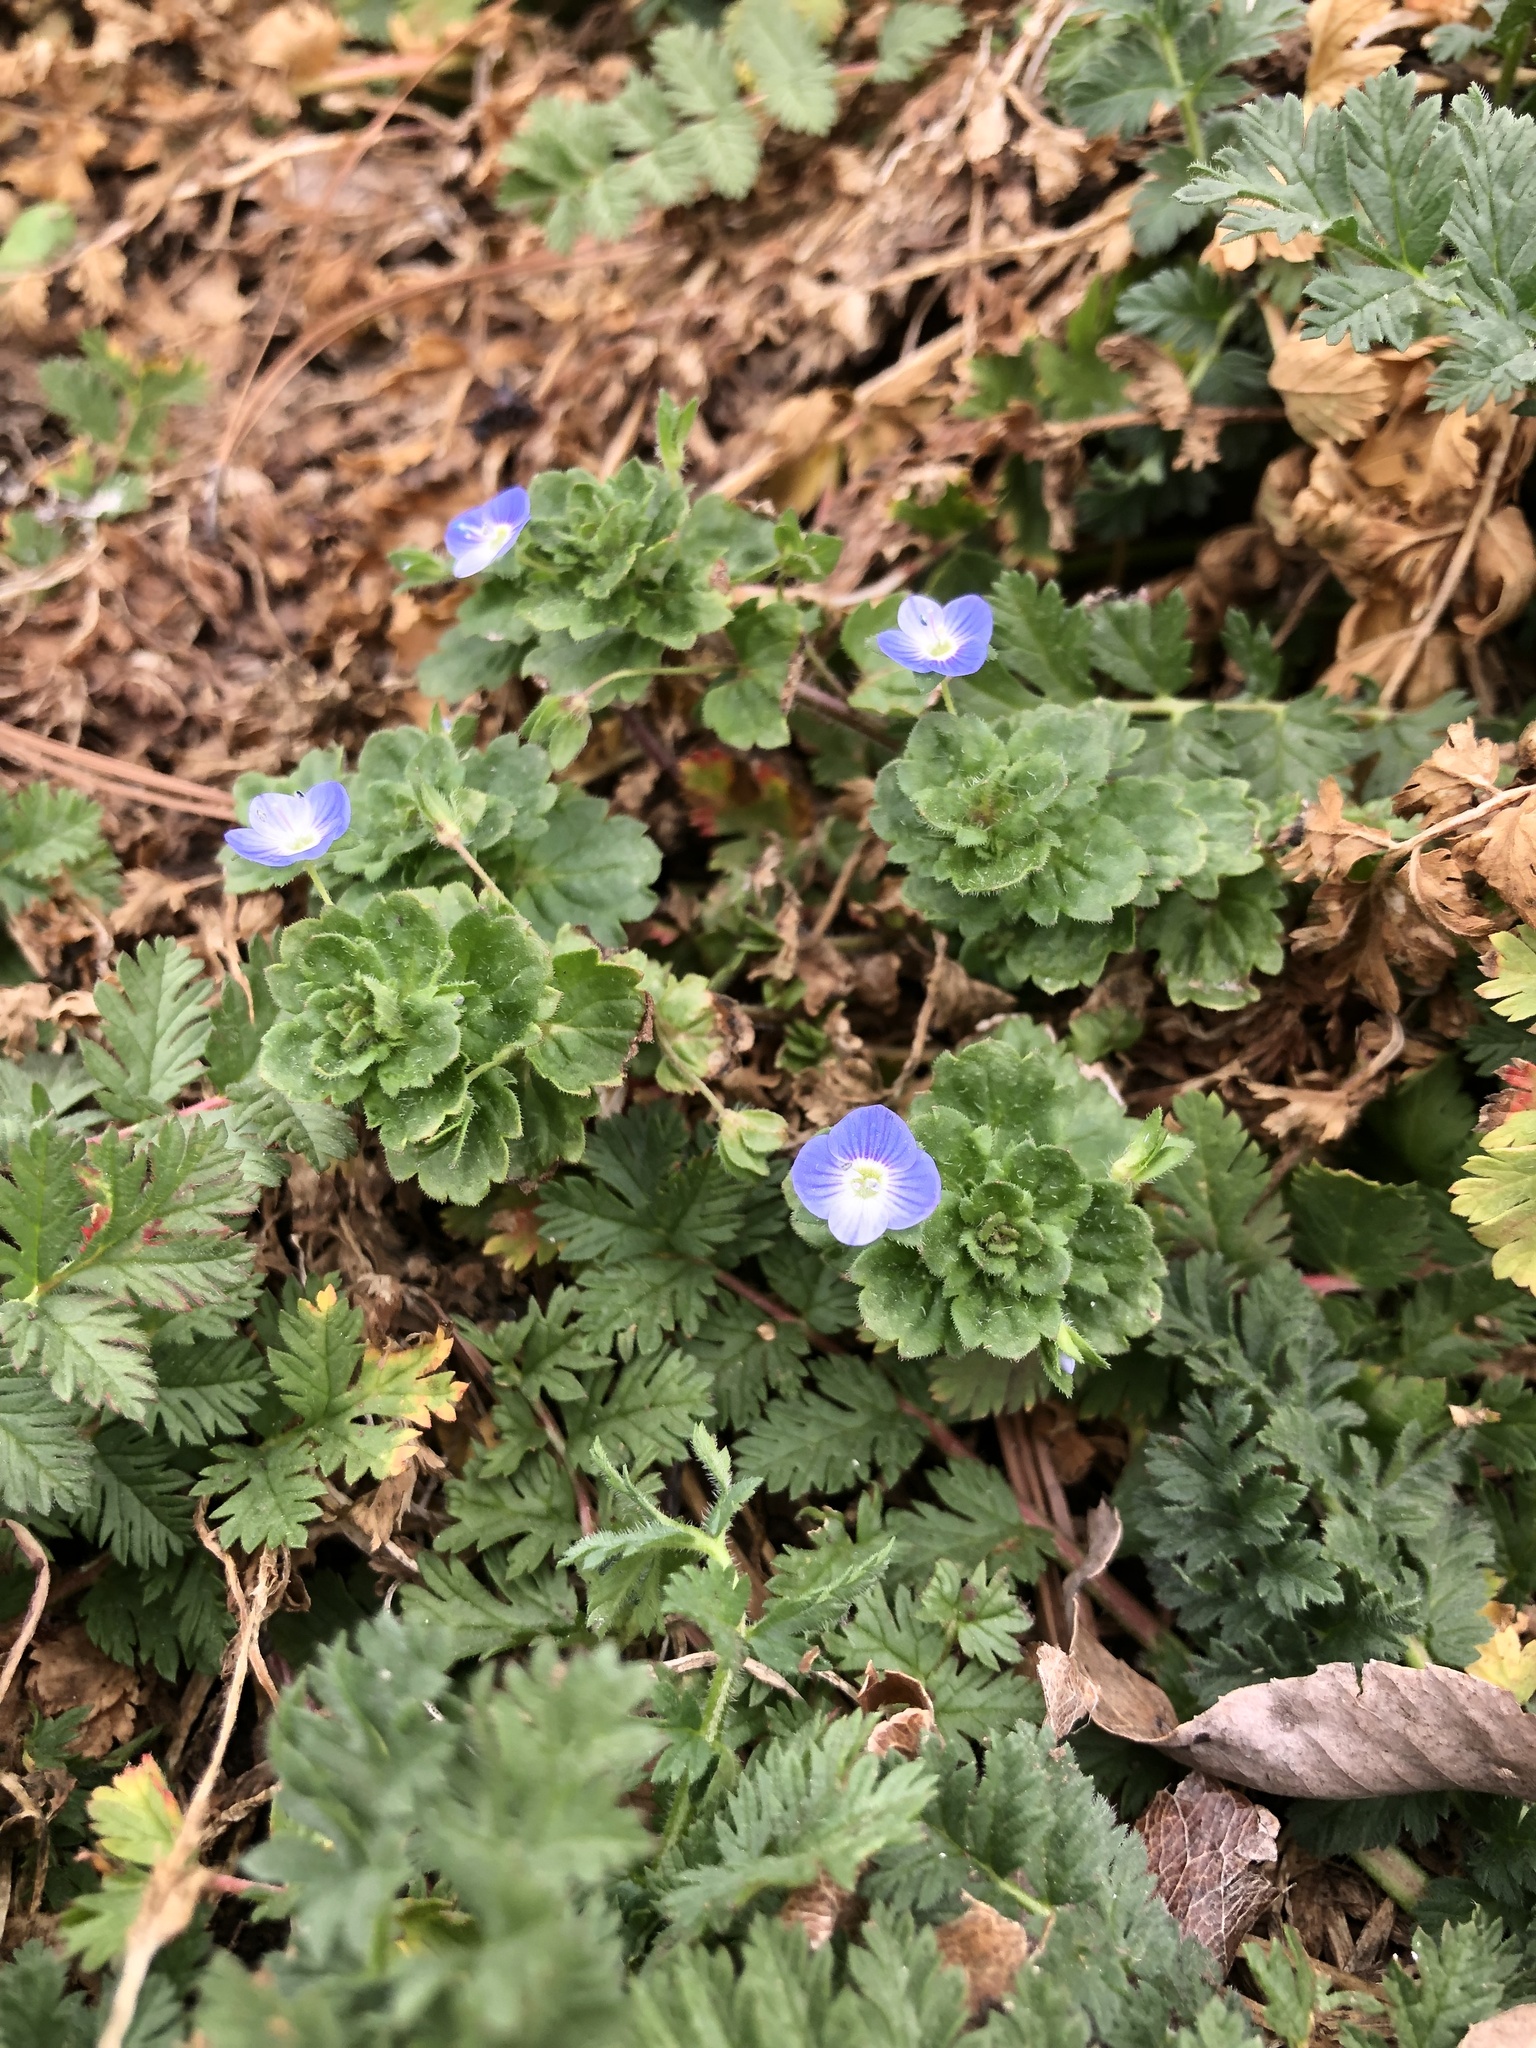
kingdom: Plantae
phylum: Tracheophyta
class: Magnoliopsida
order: Lamiales
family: Plantaginaceae
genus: Veronica
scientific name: Veronica persica
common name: Common field-speedwell
